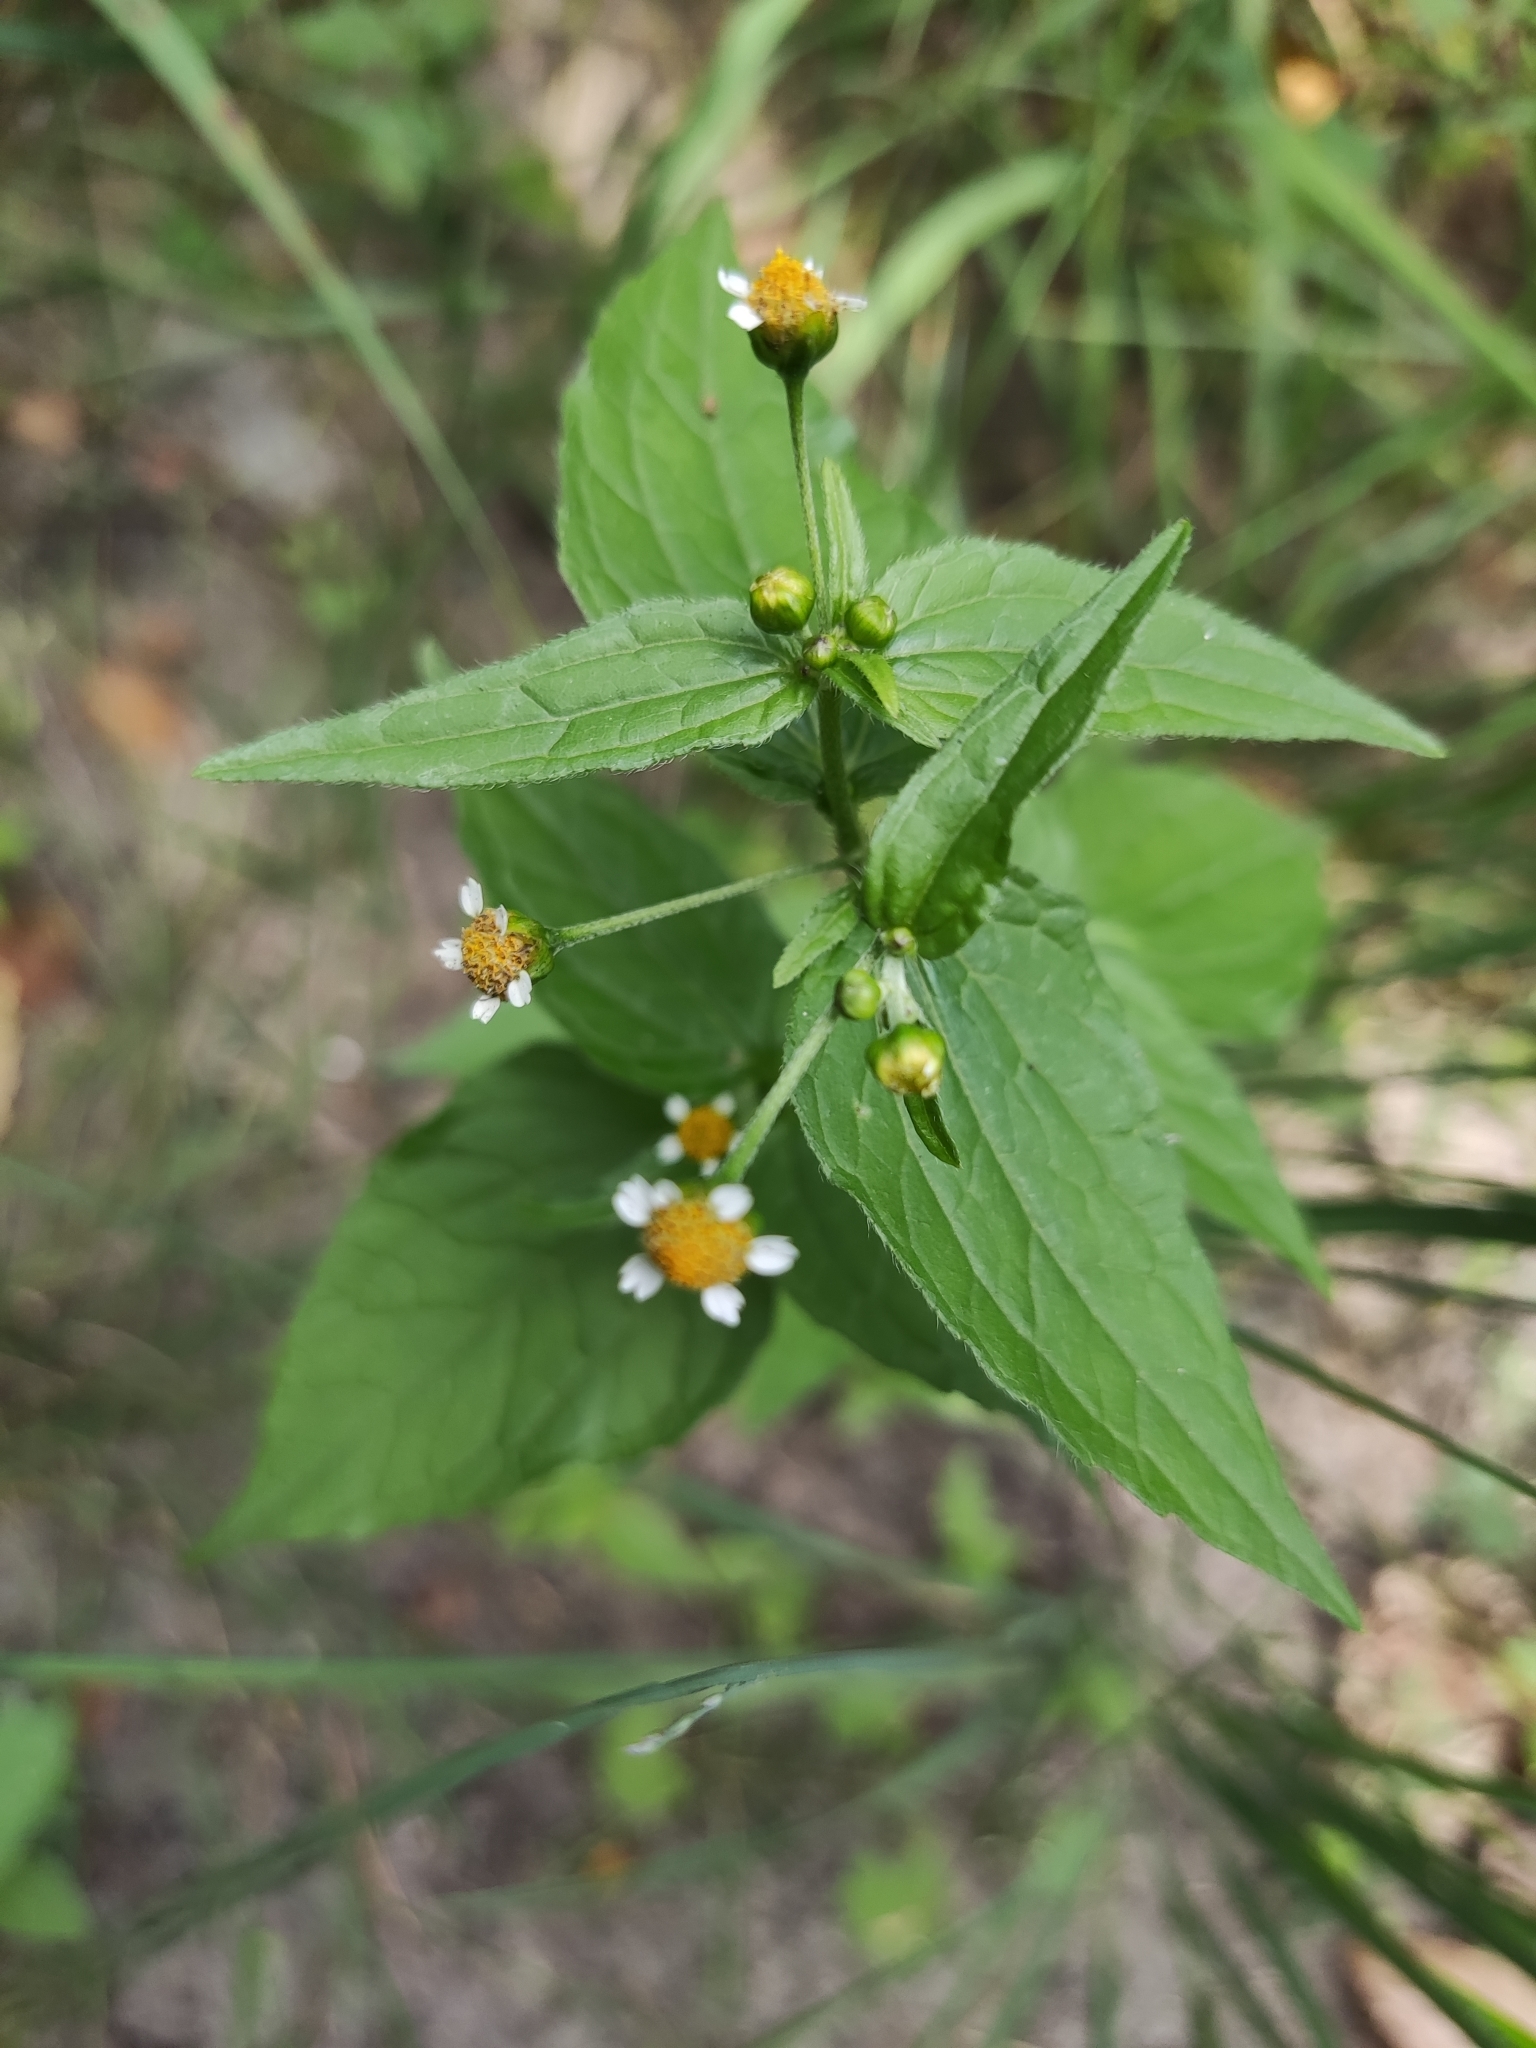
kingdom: Plantae
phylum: Tracheophyta
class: Magnoliopsida
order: Asterales
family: Asteraceae
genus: Galinsoga
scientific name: Galinsoga parviflora
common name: Gallant soldier
